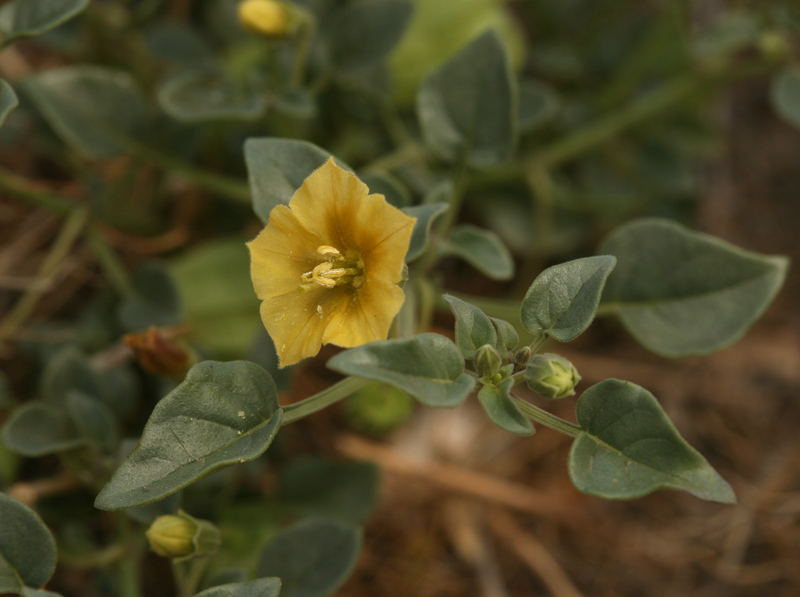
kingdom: Plantae
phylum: Tracheophyta
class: Magnoliopsida
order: Solanales
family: Solanaceae
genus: Physalis
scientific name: Physalis crassifolia
